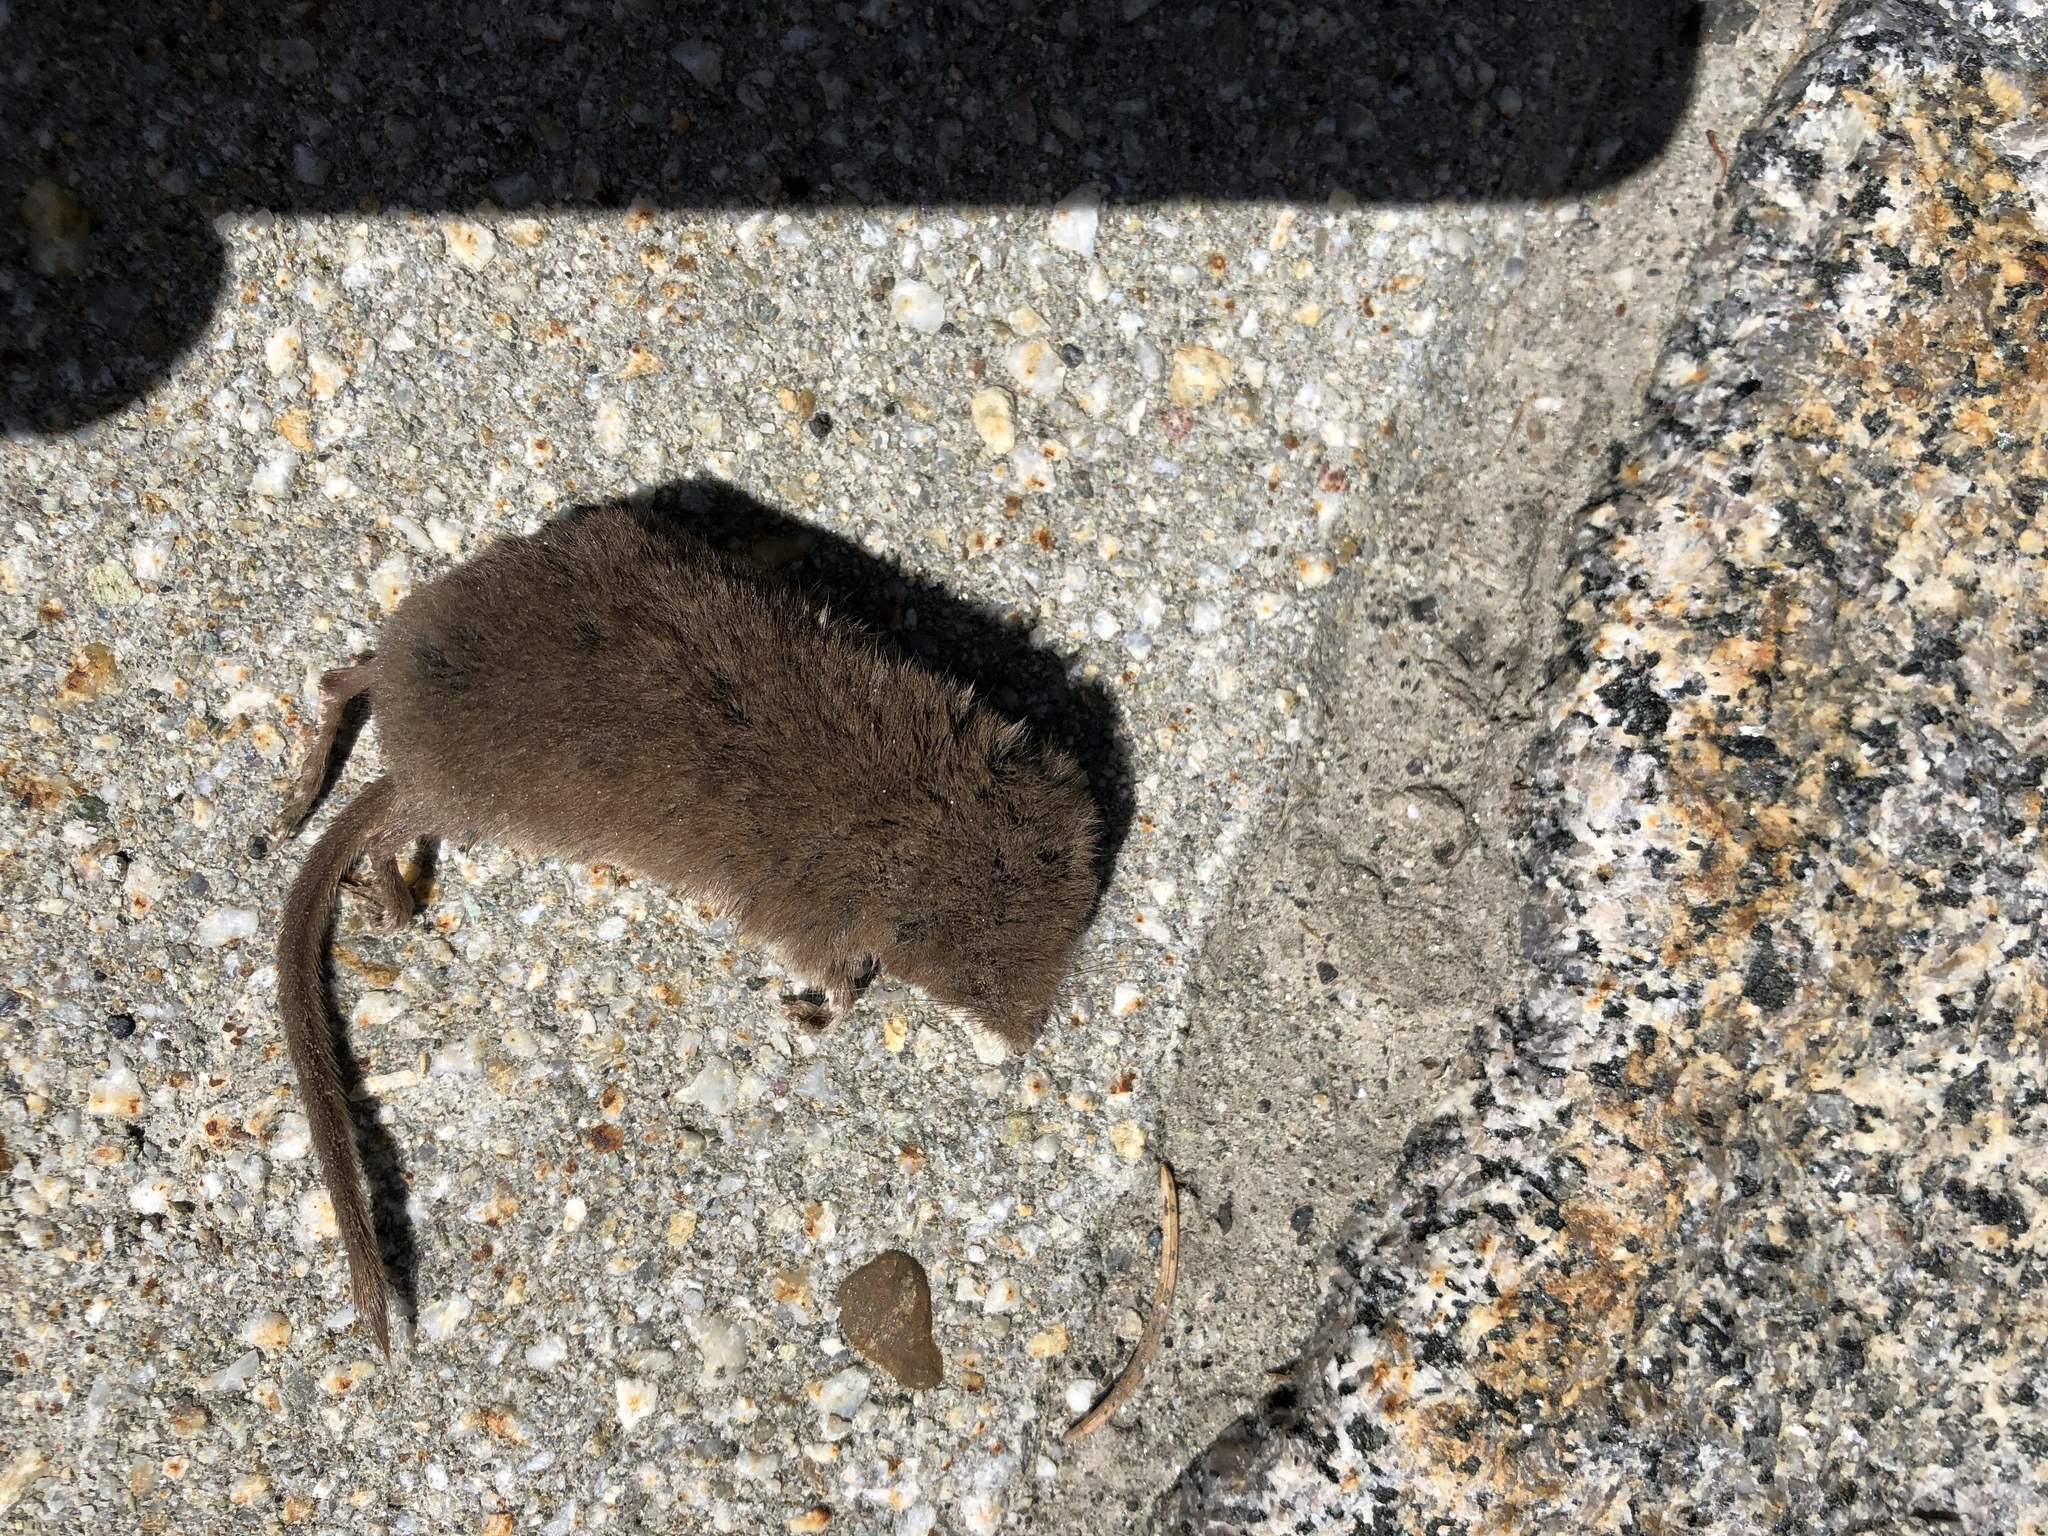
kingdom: Animalia
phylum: Chordata
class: Mammalia
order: Soricomorpha
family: Soricidae
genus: Sorex
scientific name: Sorex minutus
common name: Eurasian pygmy shrew
